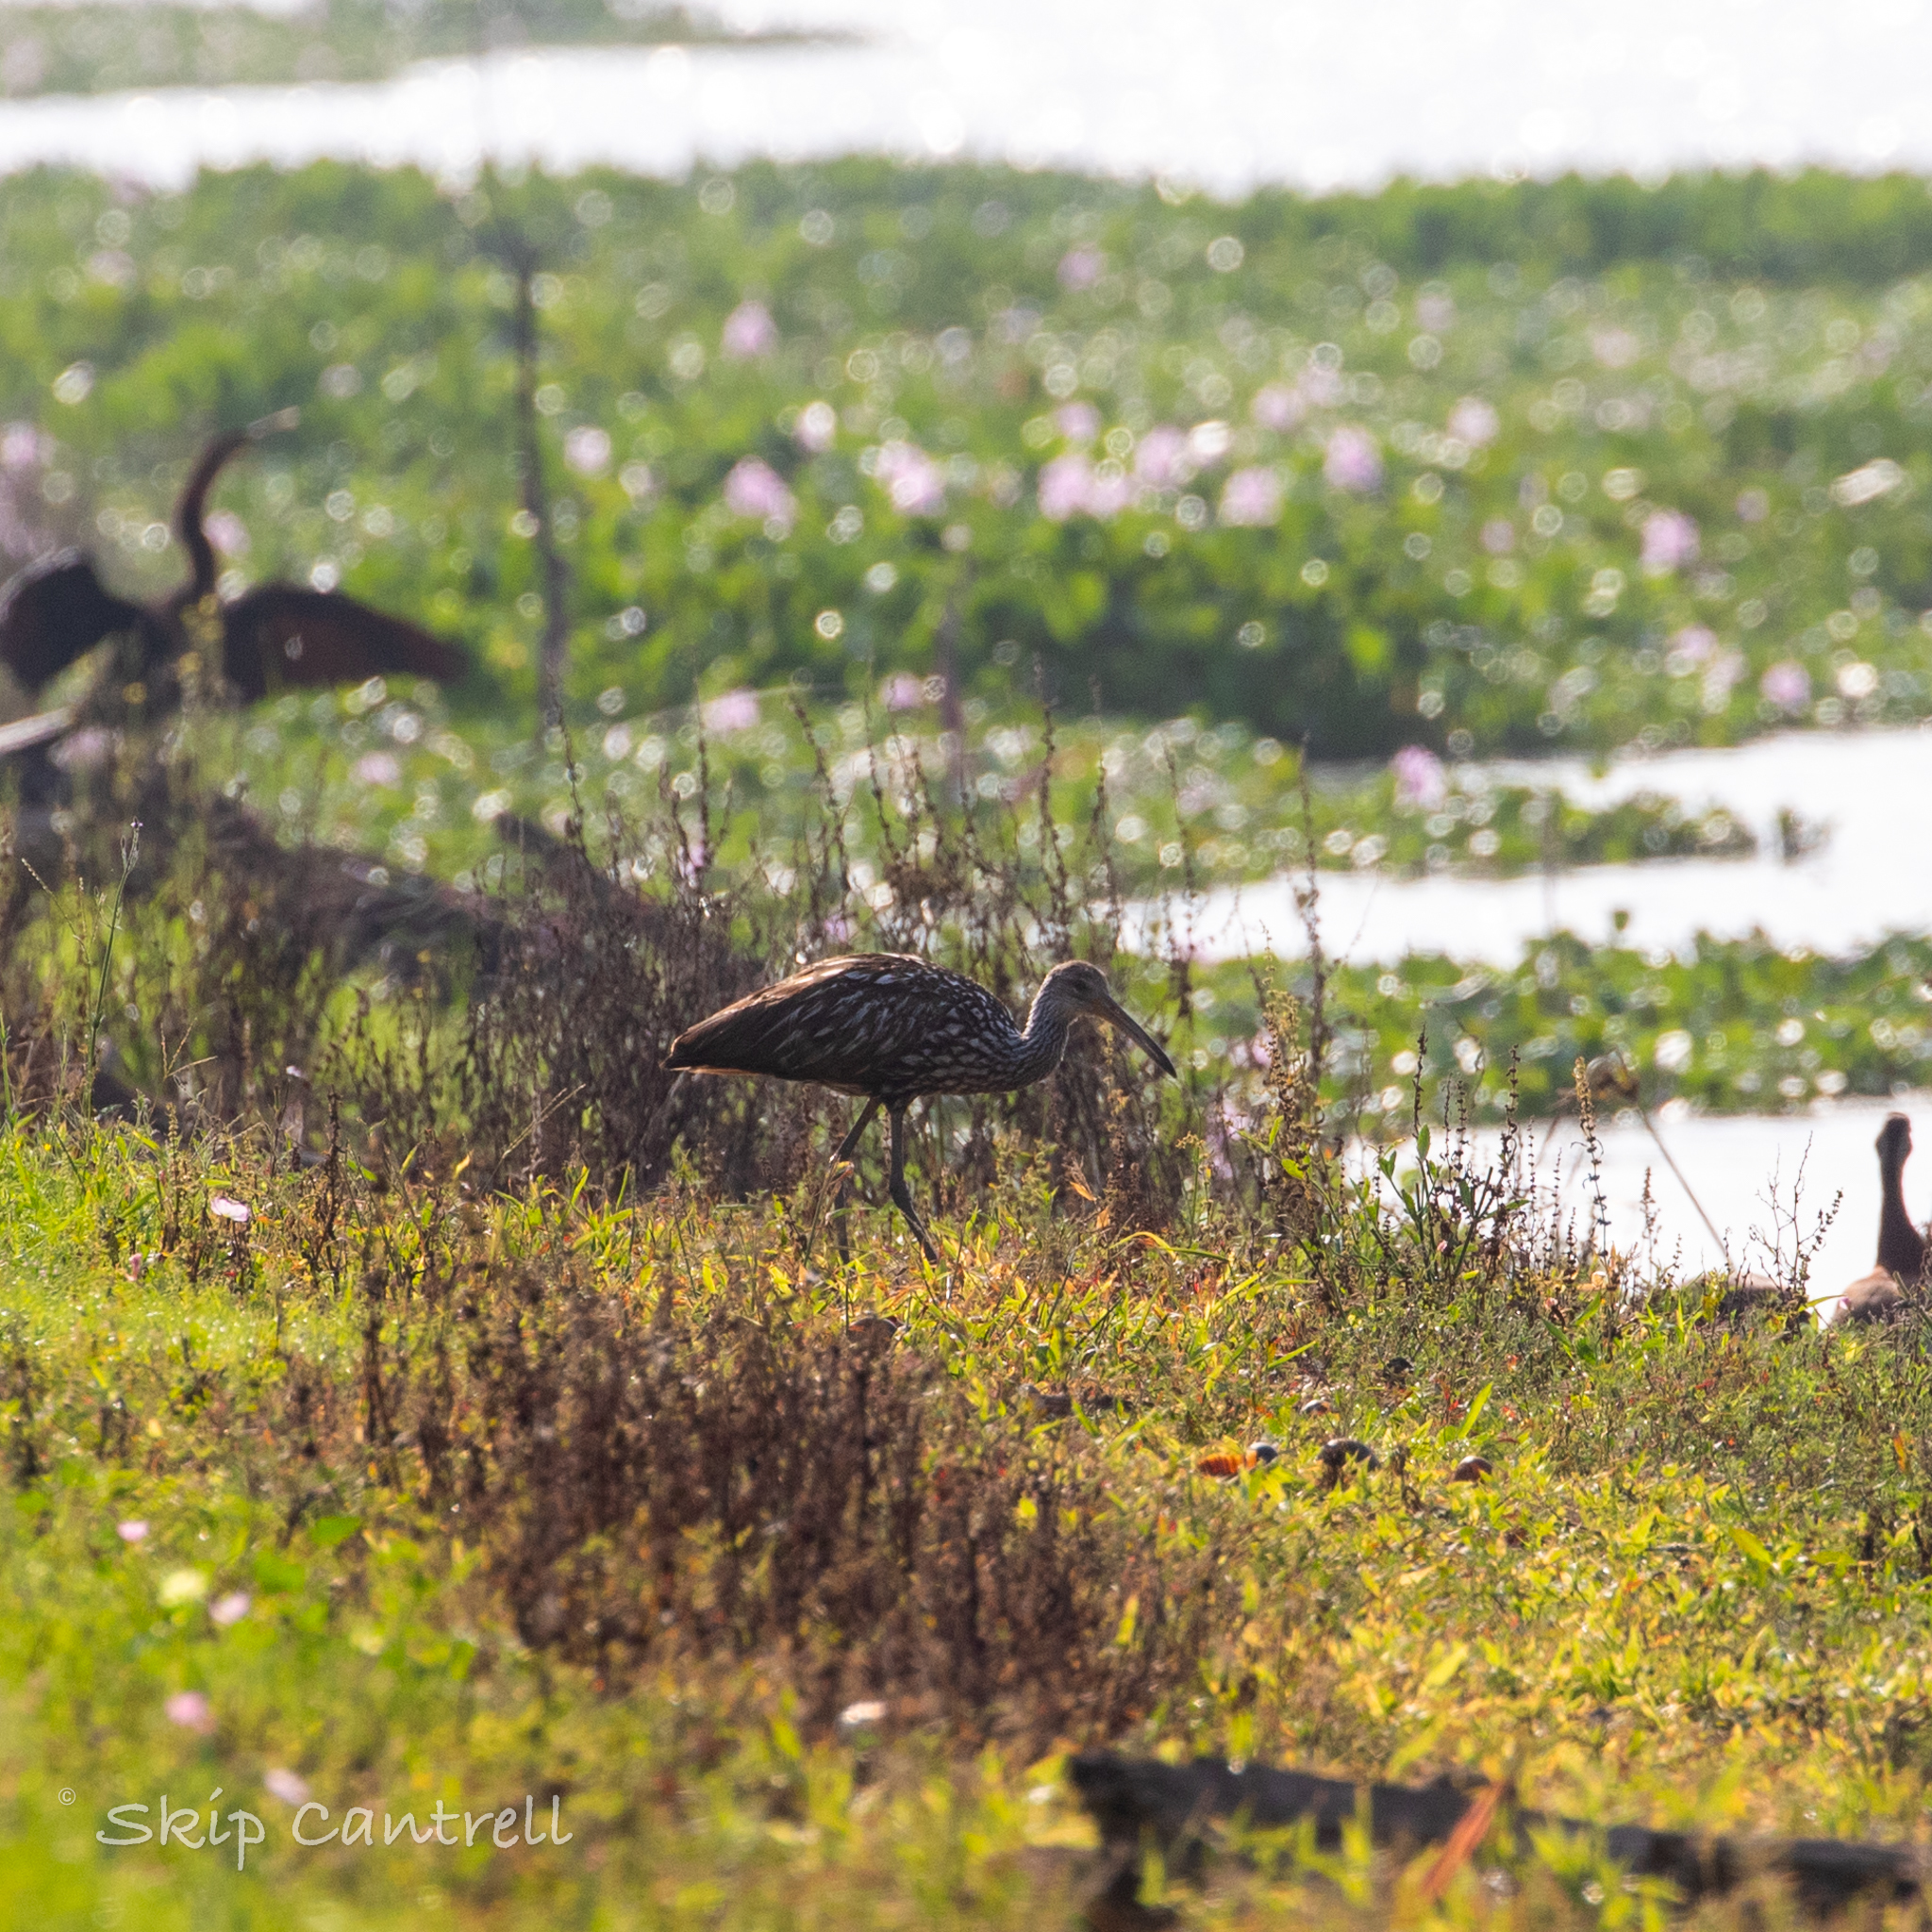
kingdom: Animalia
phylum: Chordata
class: Aves
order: Gruiformes
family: Aramidae
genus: Aramus
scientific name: Aramus guarauna
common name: Limpkin
